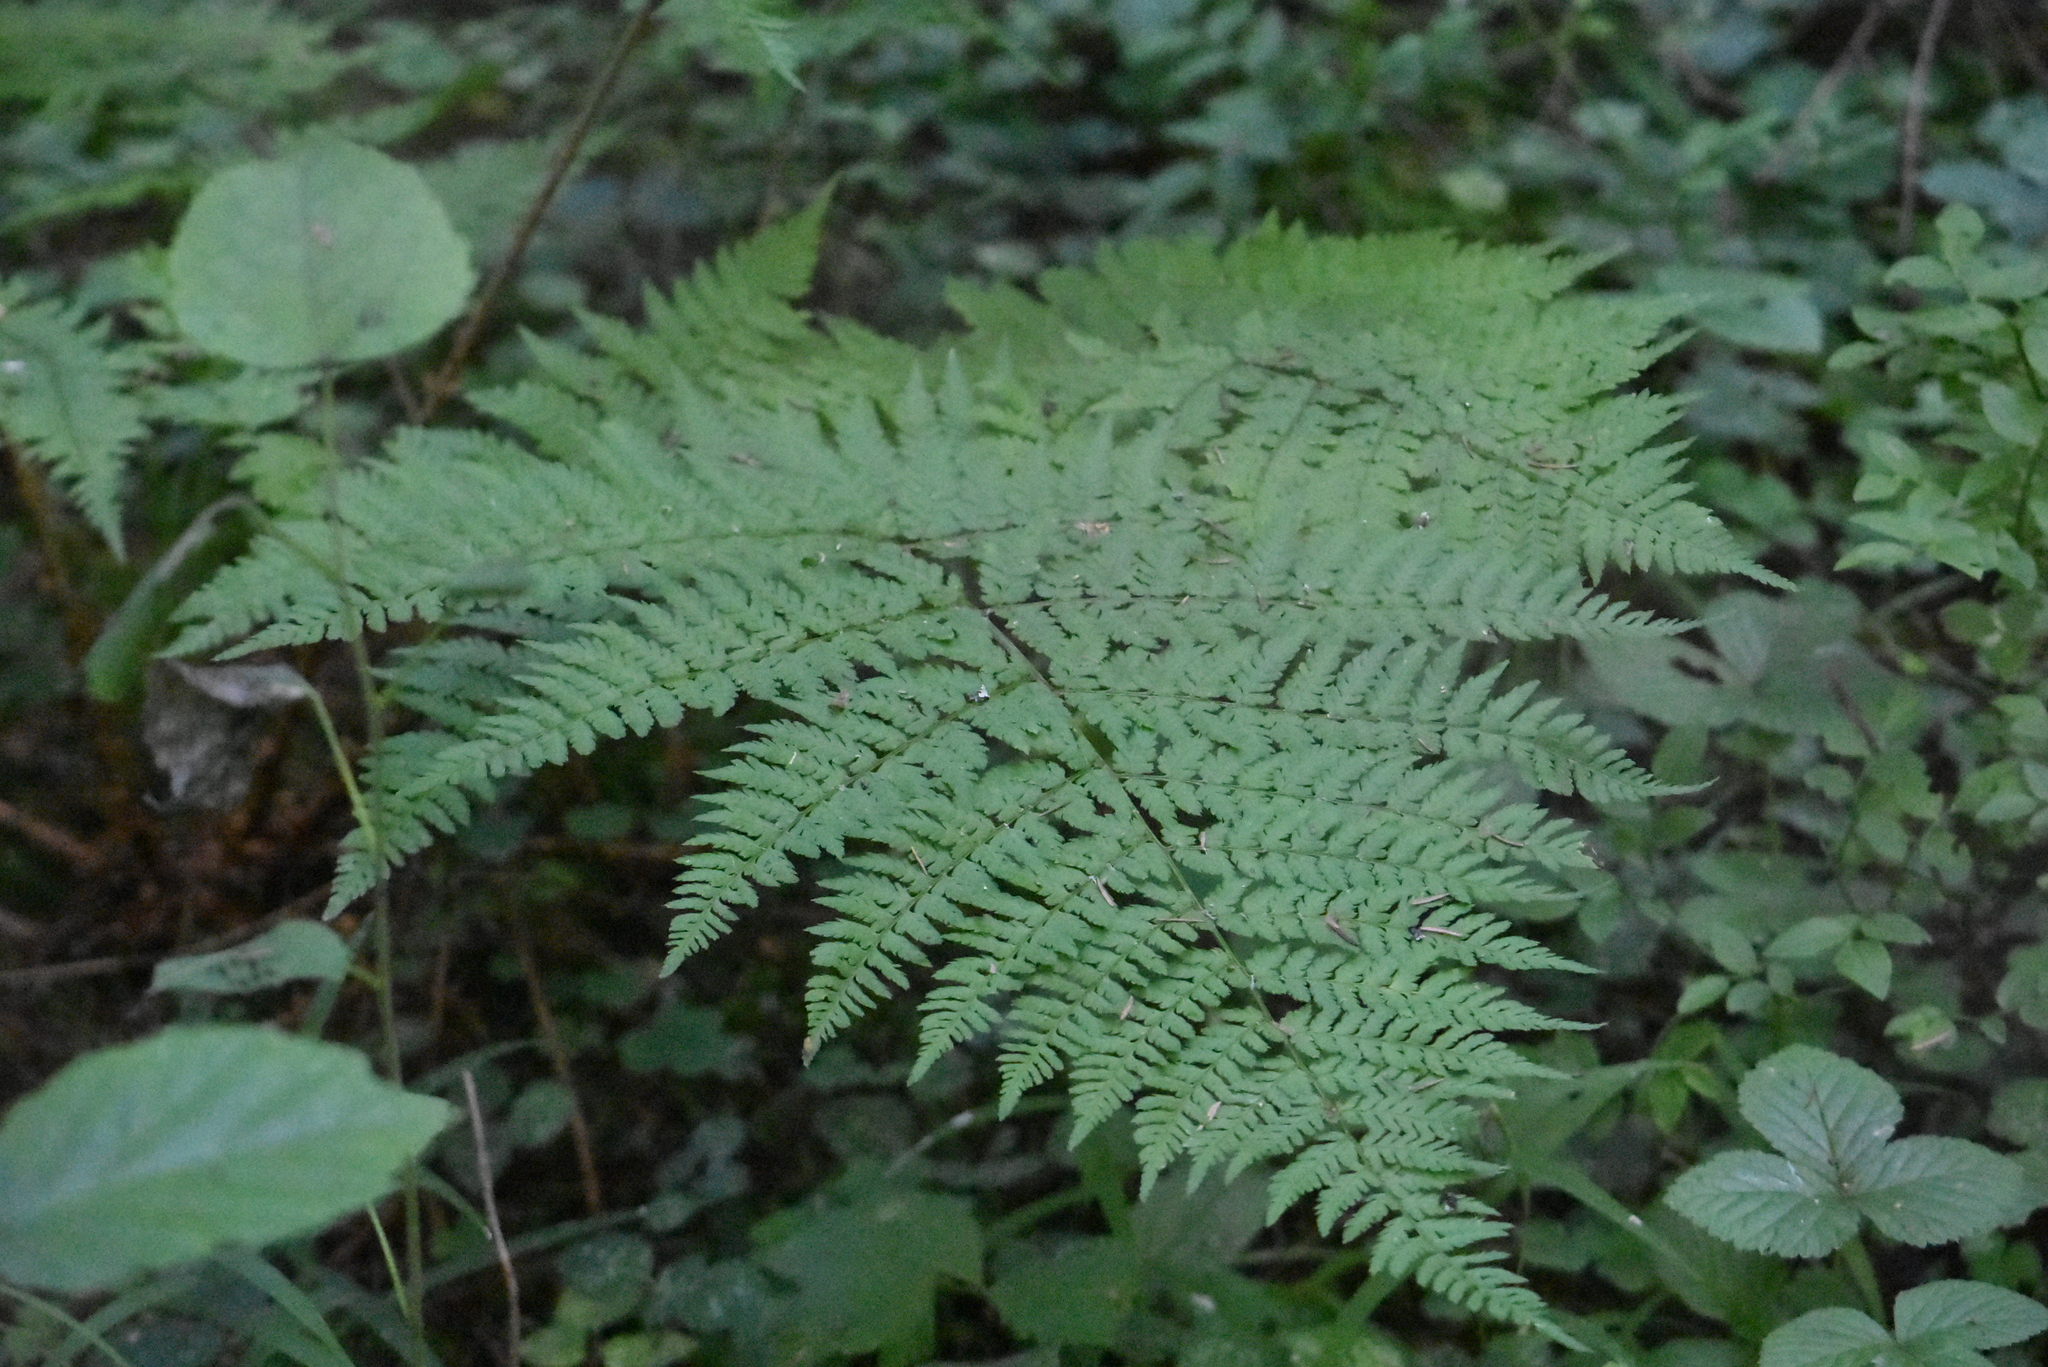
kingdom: Plantae
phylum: Tracheophyta
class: Polypodiopsida
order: Polypodiales
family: Dryopteridaceae
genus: Dryopteris
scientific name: Dryopteris expansa
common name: Northern buckler fern
